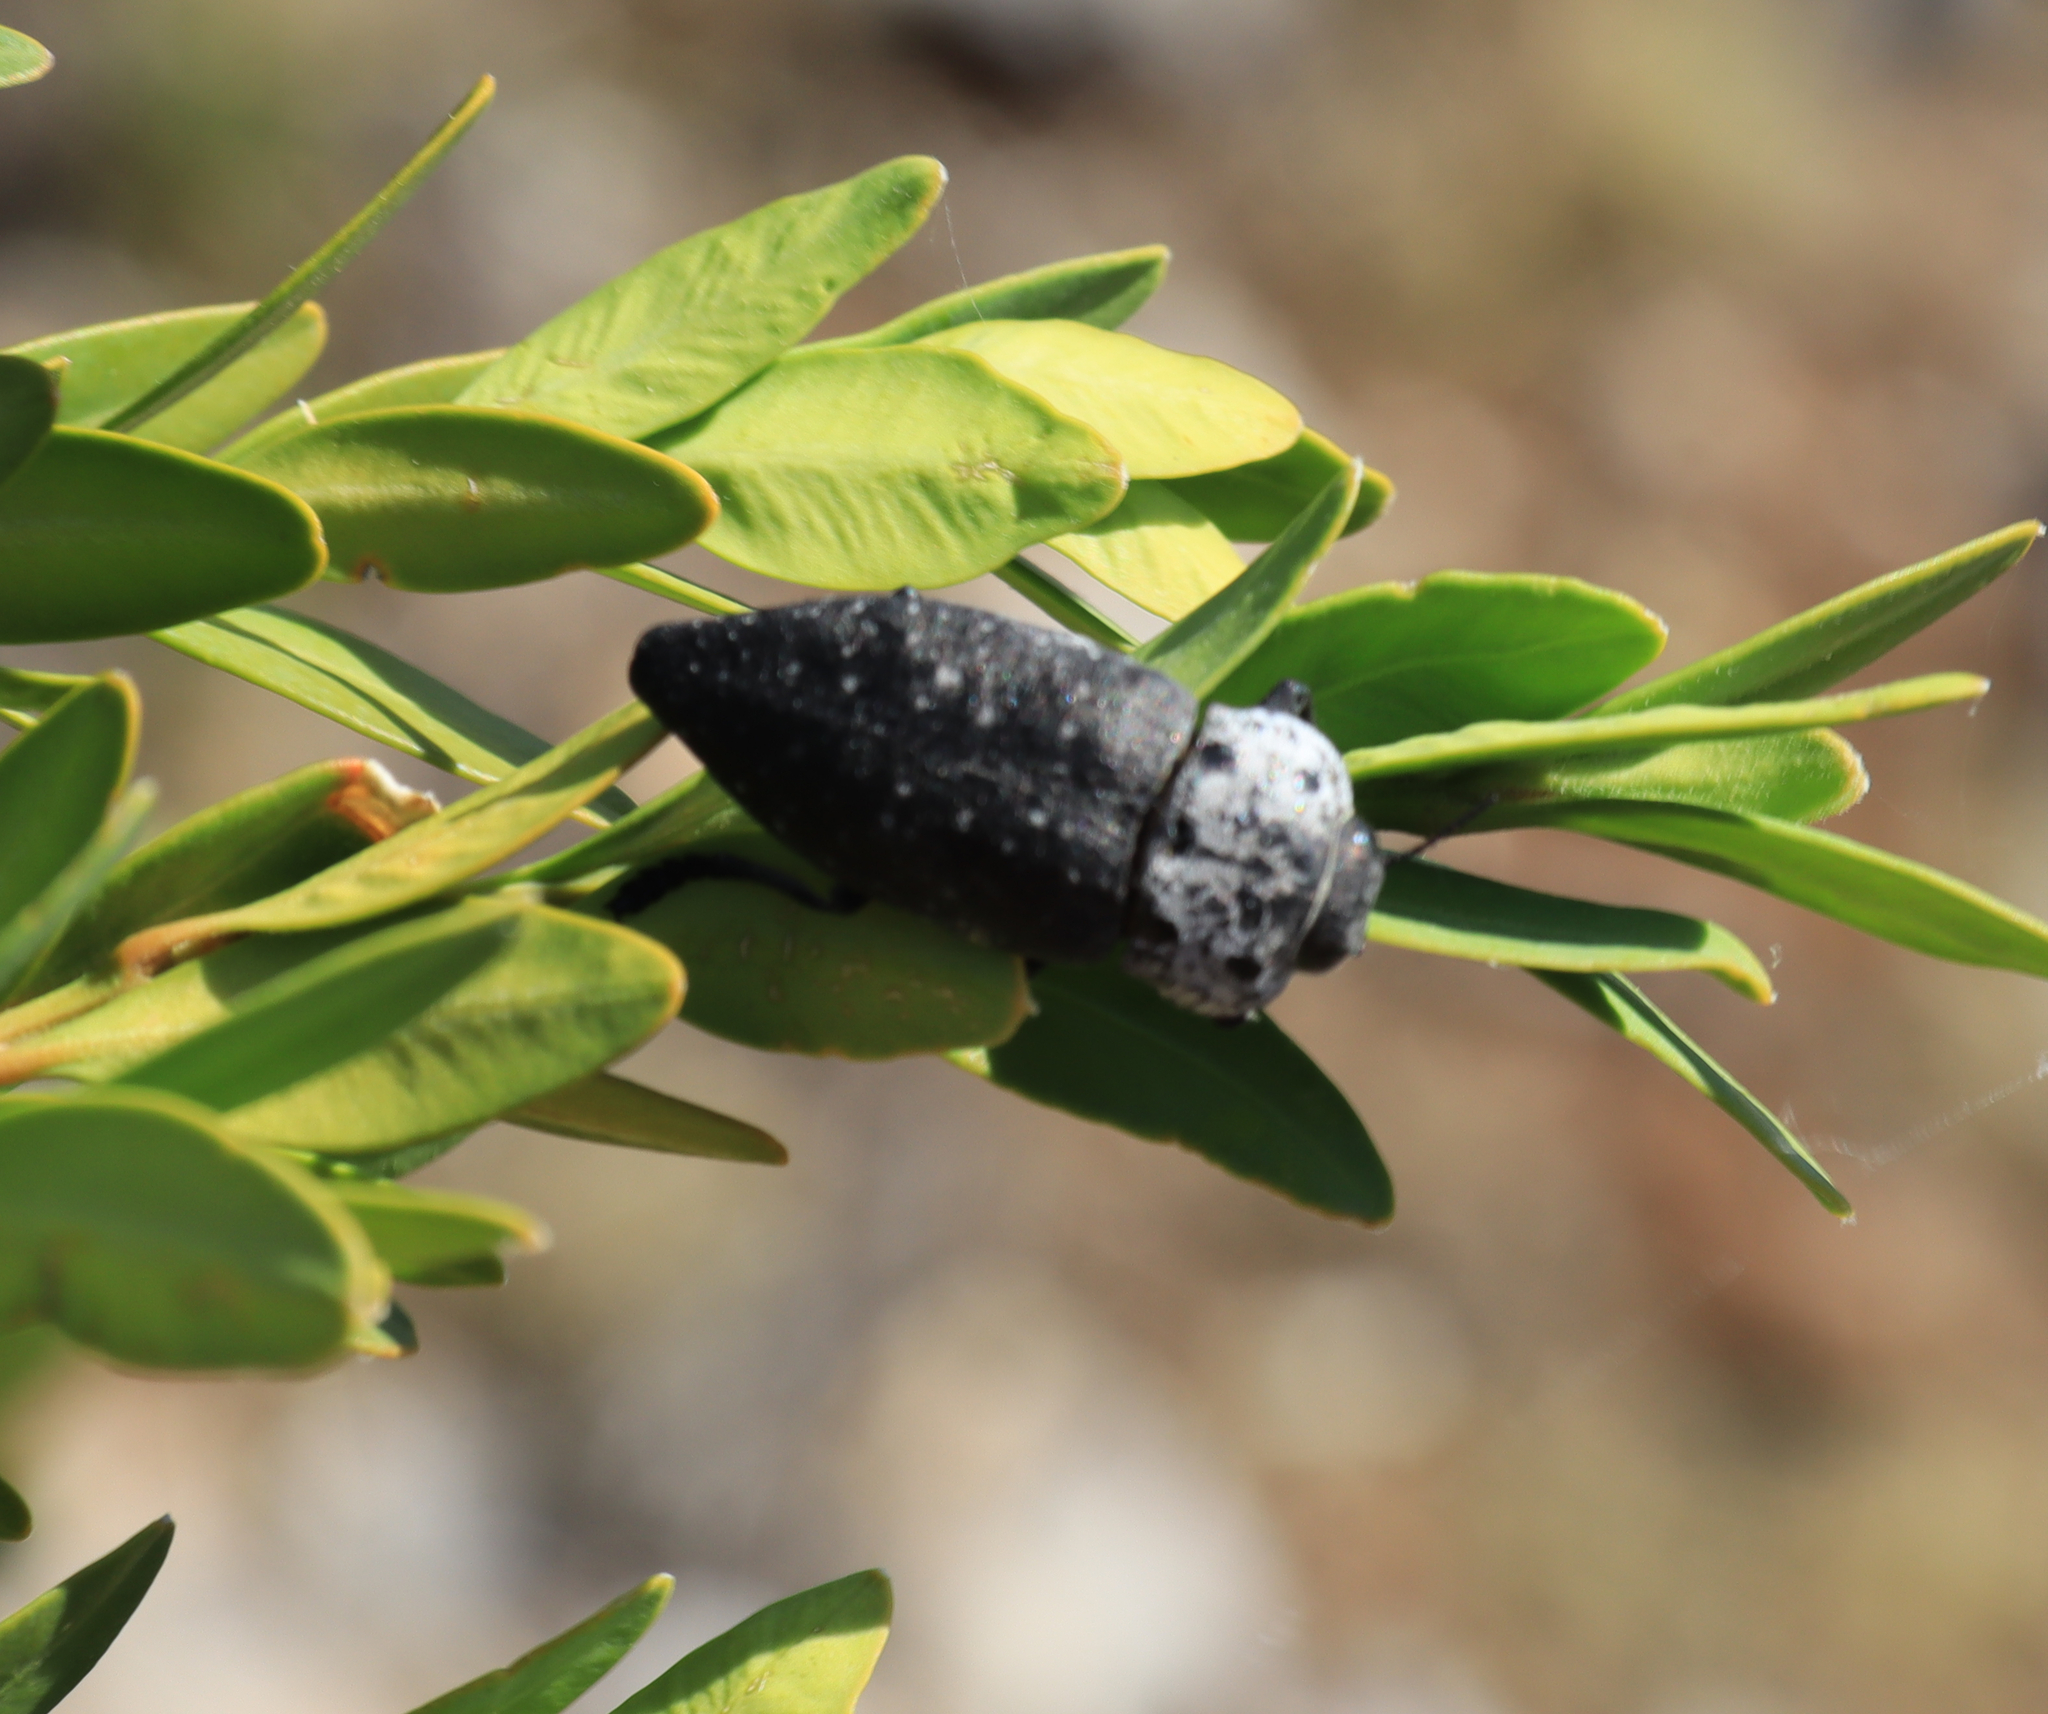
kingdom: Animalia
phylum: Arthropoda
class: Insecta
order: Coleoptera
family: Buprestidae
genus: Capnodis
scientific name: Capnodis tenebrionis
